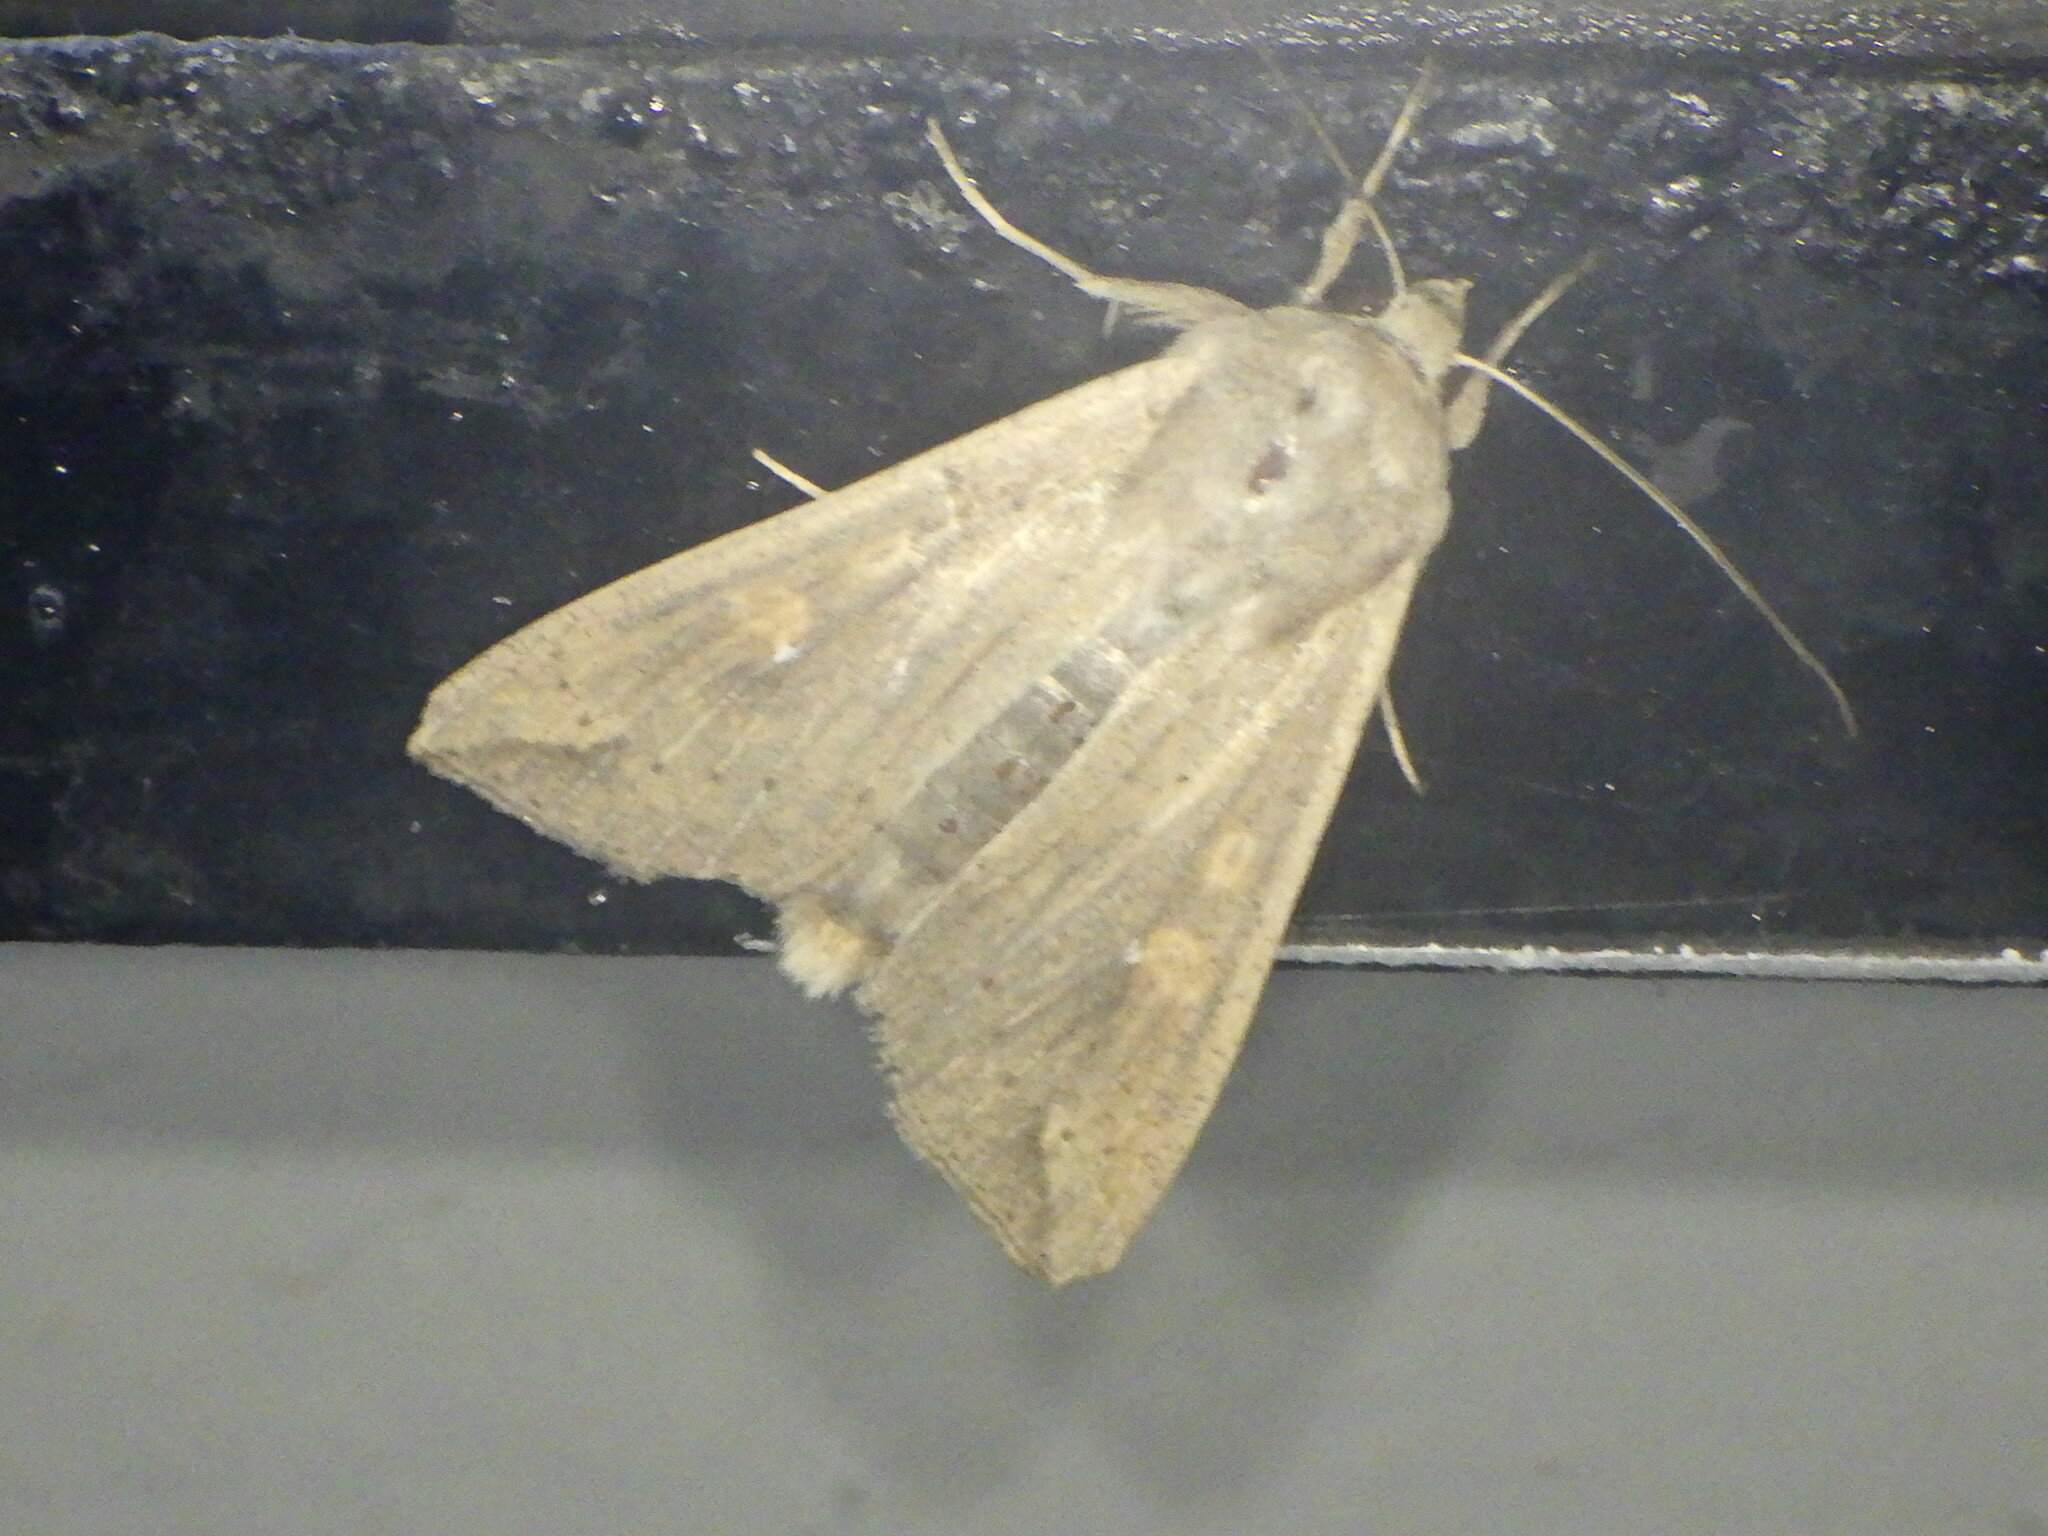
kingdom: Animalia
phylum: Arthropoda
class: Insecta
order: Lepidoptera
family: Noctuidae
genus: Mythimna
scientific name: Mythimna unipuncta
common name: White-speck
